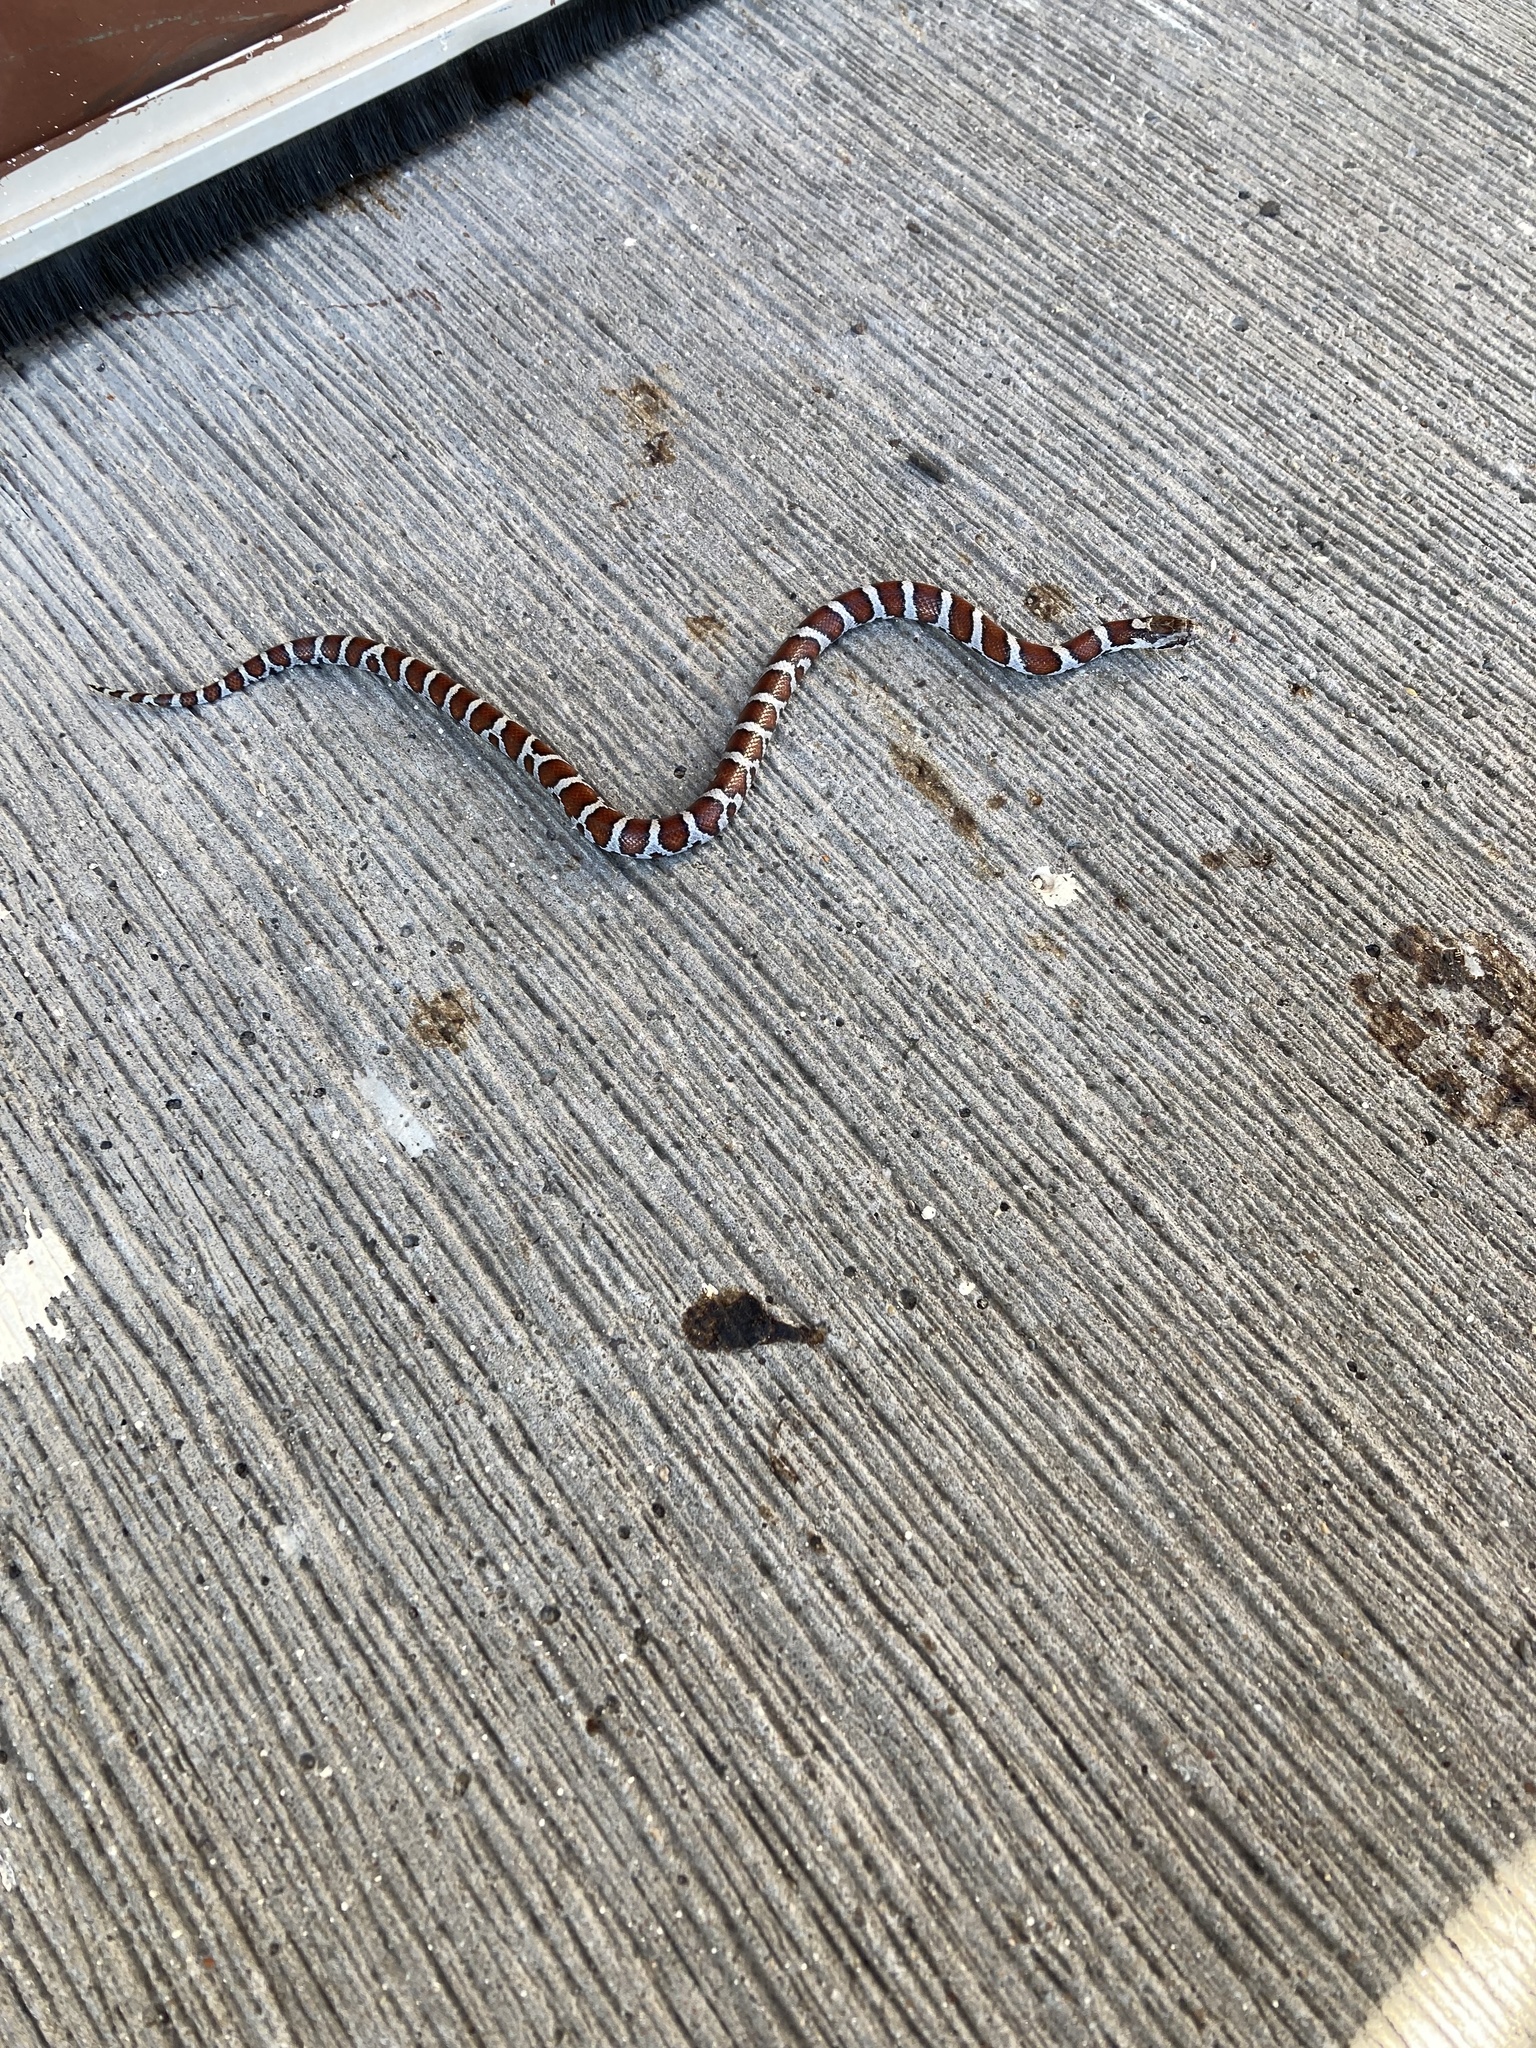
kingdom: Animalia
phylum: Chordata
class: Squamata
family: Colubridae
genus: Lampropeltis
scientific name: Lampropeltis triangulum
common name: Eastern milksnake
